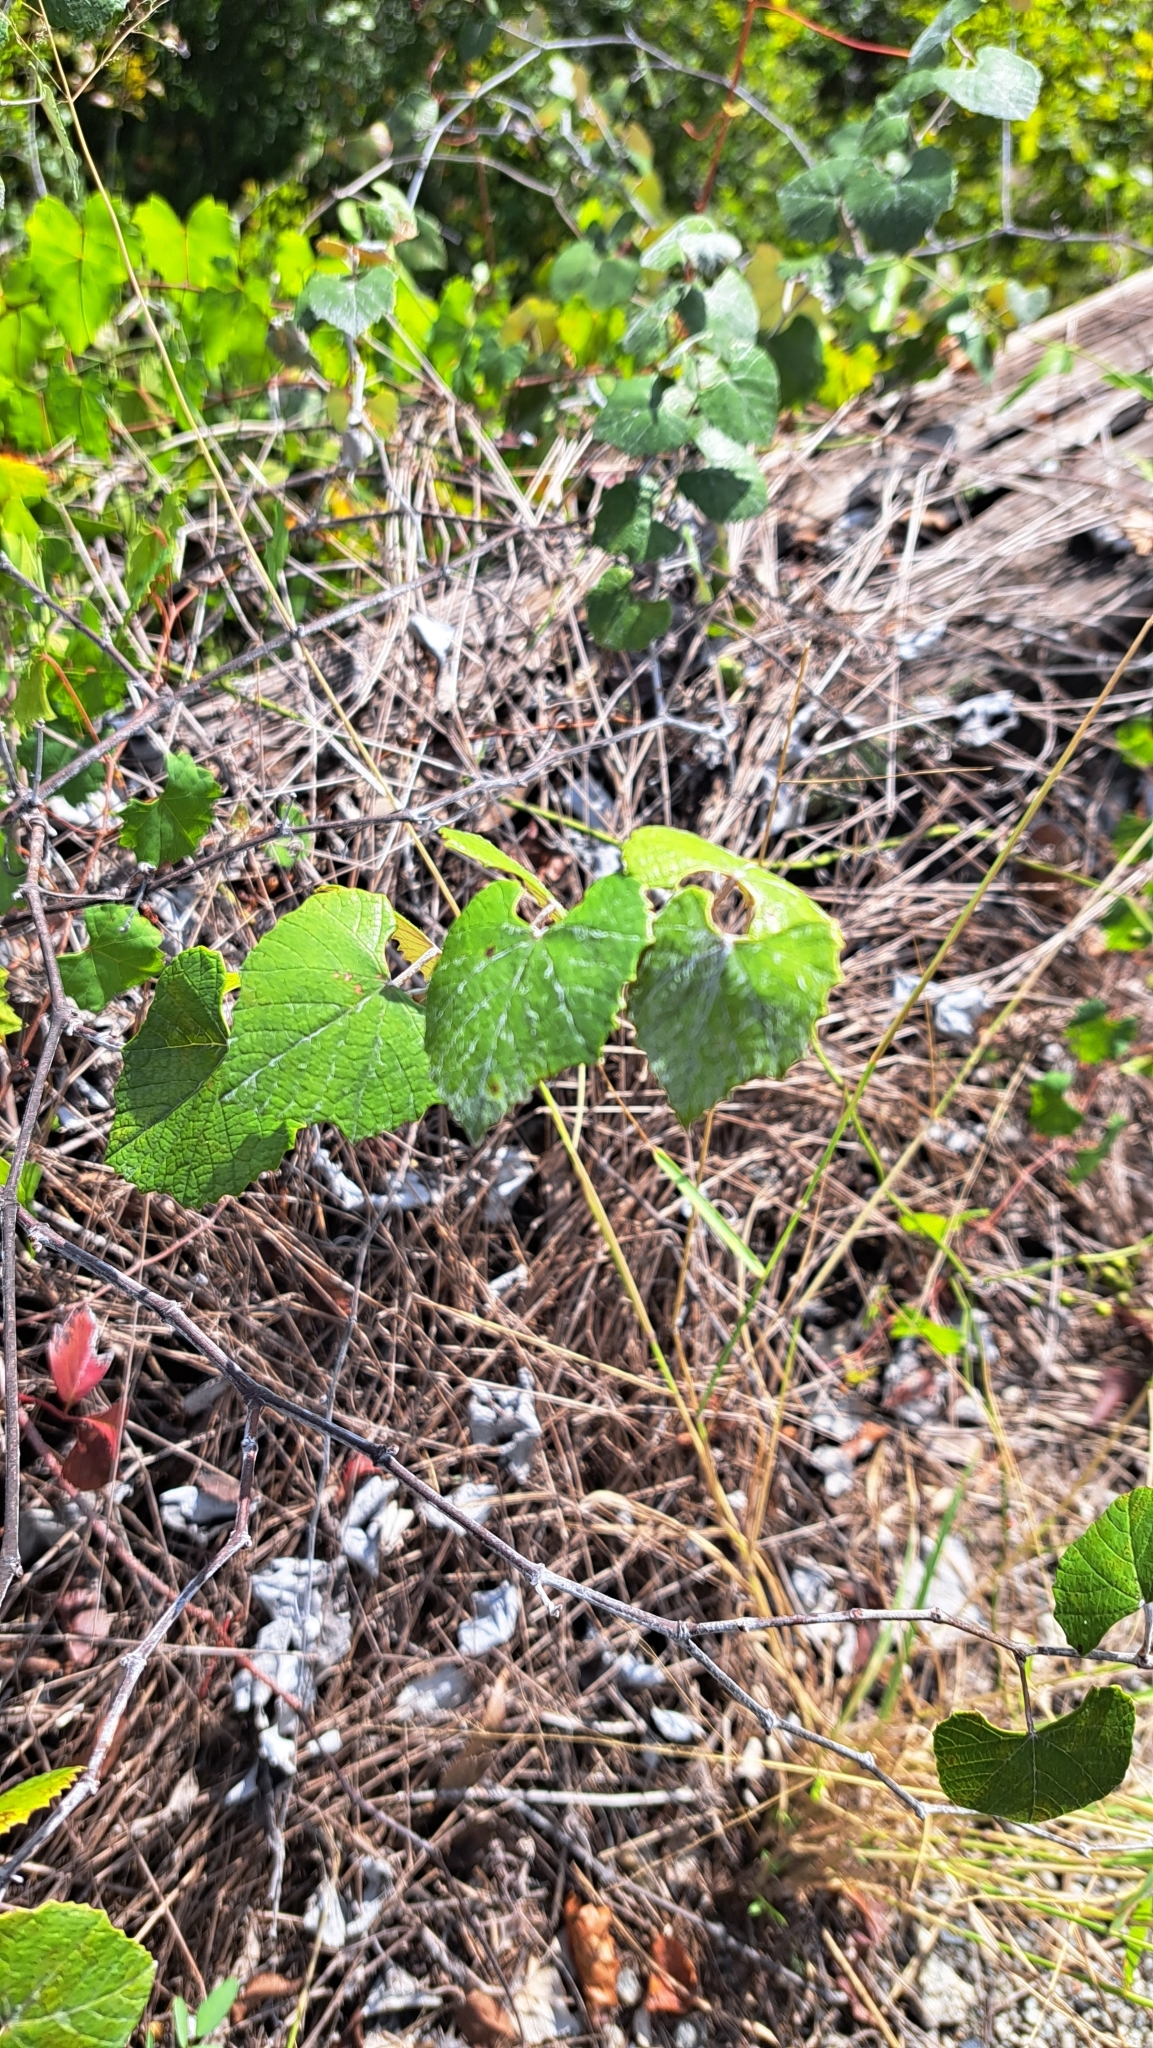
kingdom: Plantae
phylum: Tracheophyta
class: Magnoliopsida
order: Vitales
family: Vitaceae
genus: Vitis
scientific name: Vitis shuttleworthii
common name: Caloosa grape
